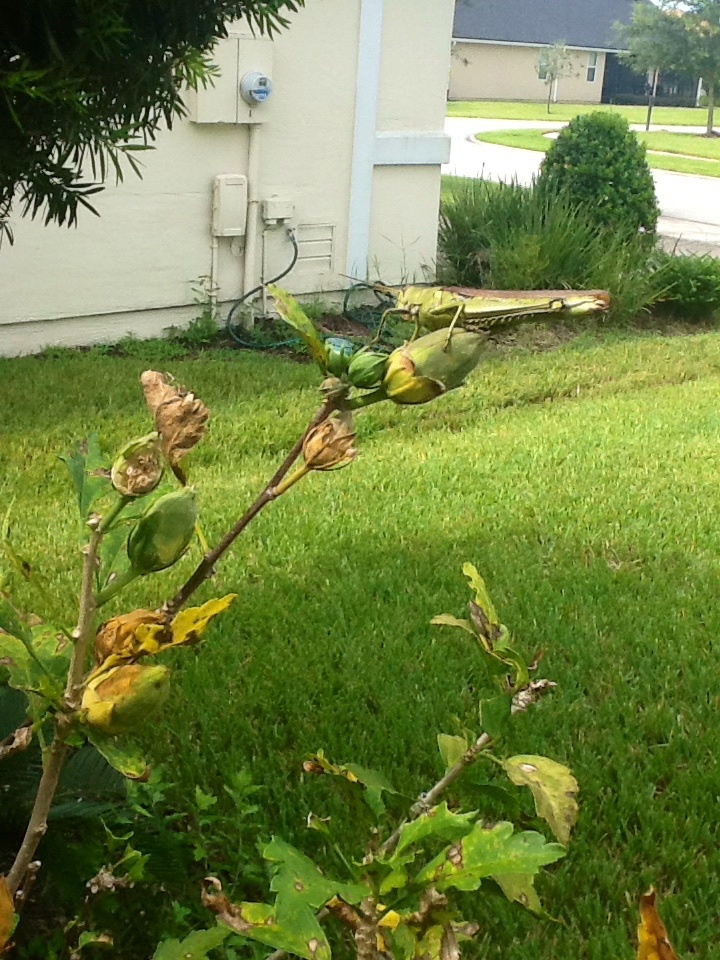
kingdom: Animalia
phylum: Arthropoda
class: Insecta
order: Orthoptera
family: Acrididae
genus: Schistocerca
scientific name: Schistocerca obscura
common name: Obscure bird grasshopper
